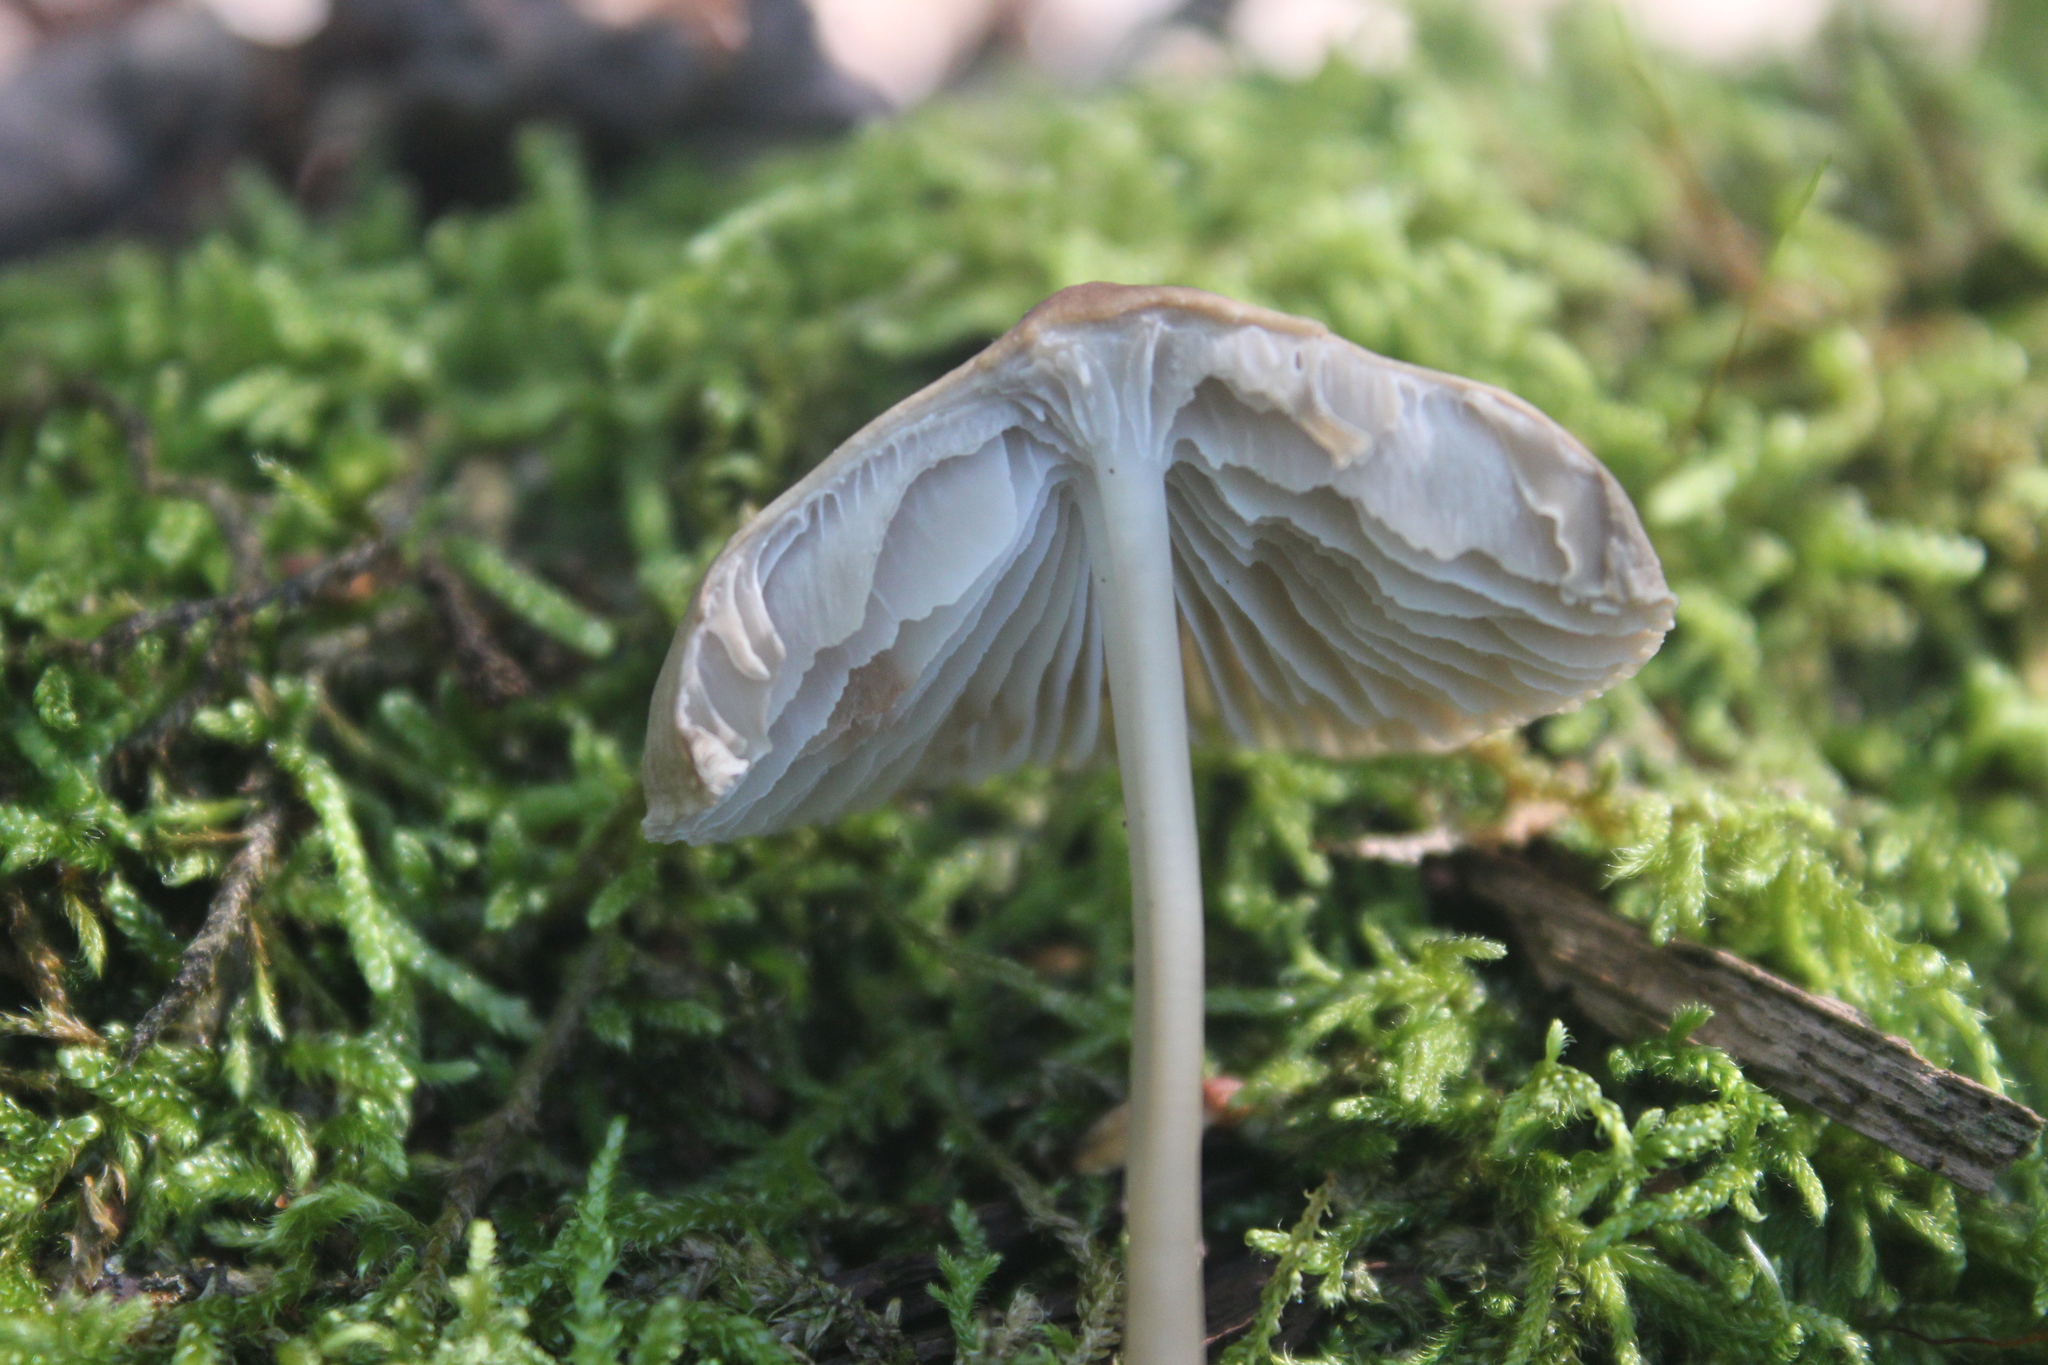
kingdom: Fungi
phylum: Basidiomycota
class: Agaricomycetes
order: Agaricales
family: Mycenaceae
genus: Mycena
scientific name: Mycena galericulata
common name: Bonnet mycena
